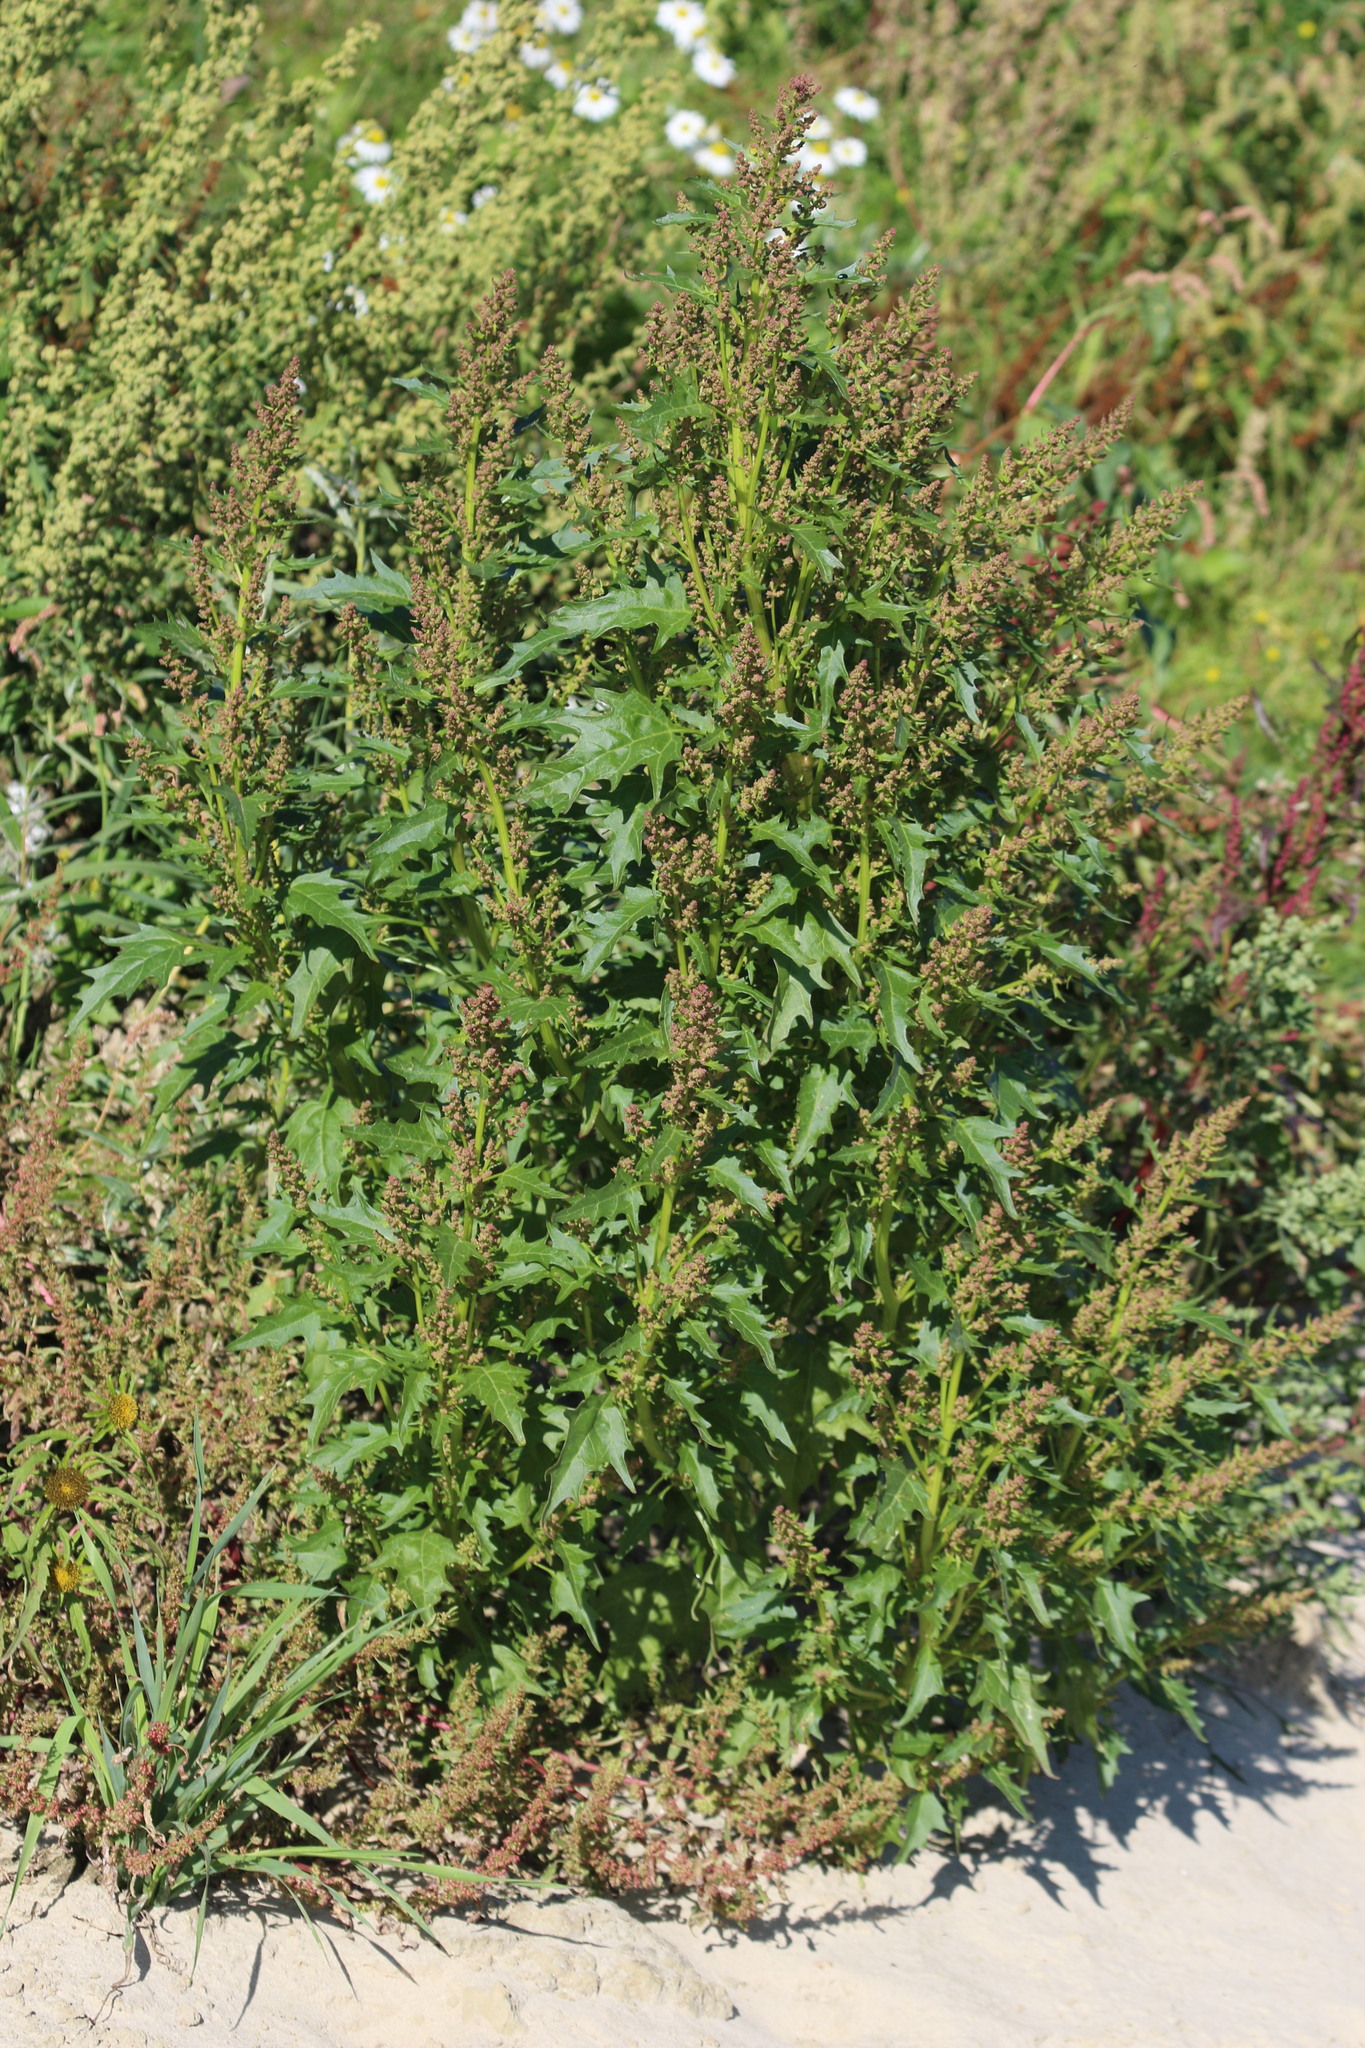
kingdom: Plantae
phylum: Tracheophyta
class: Magnoliopsida
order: Caryophyllales
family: Amaranthaceae
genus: Oxybasis
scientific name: Oxybasis rubra
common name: Red goosefoot
